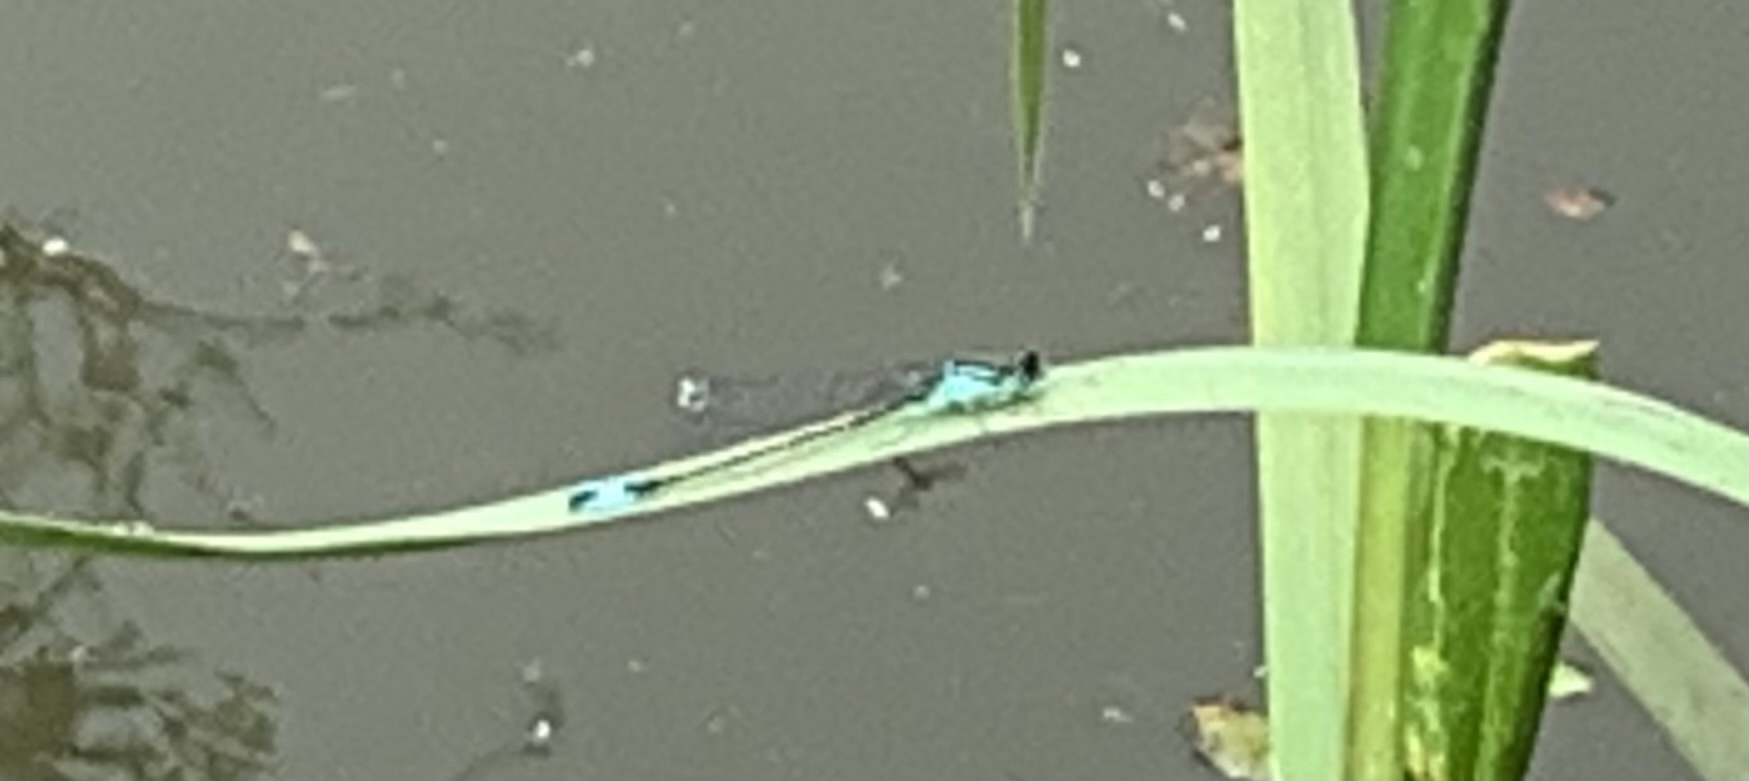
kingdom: Animalia
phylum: Arthropoda
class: Insecta
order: Odonata
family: Coenagrionidae
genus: Ischnura
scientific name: Ischnura elegans
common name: Blue-tailed damselfly
